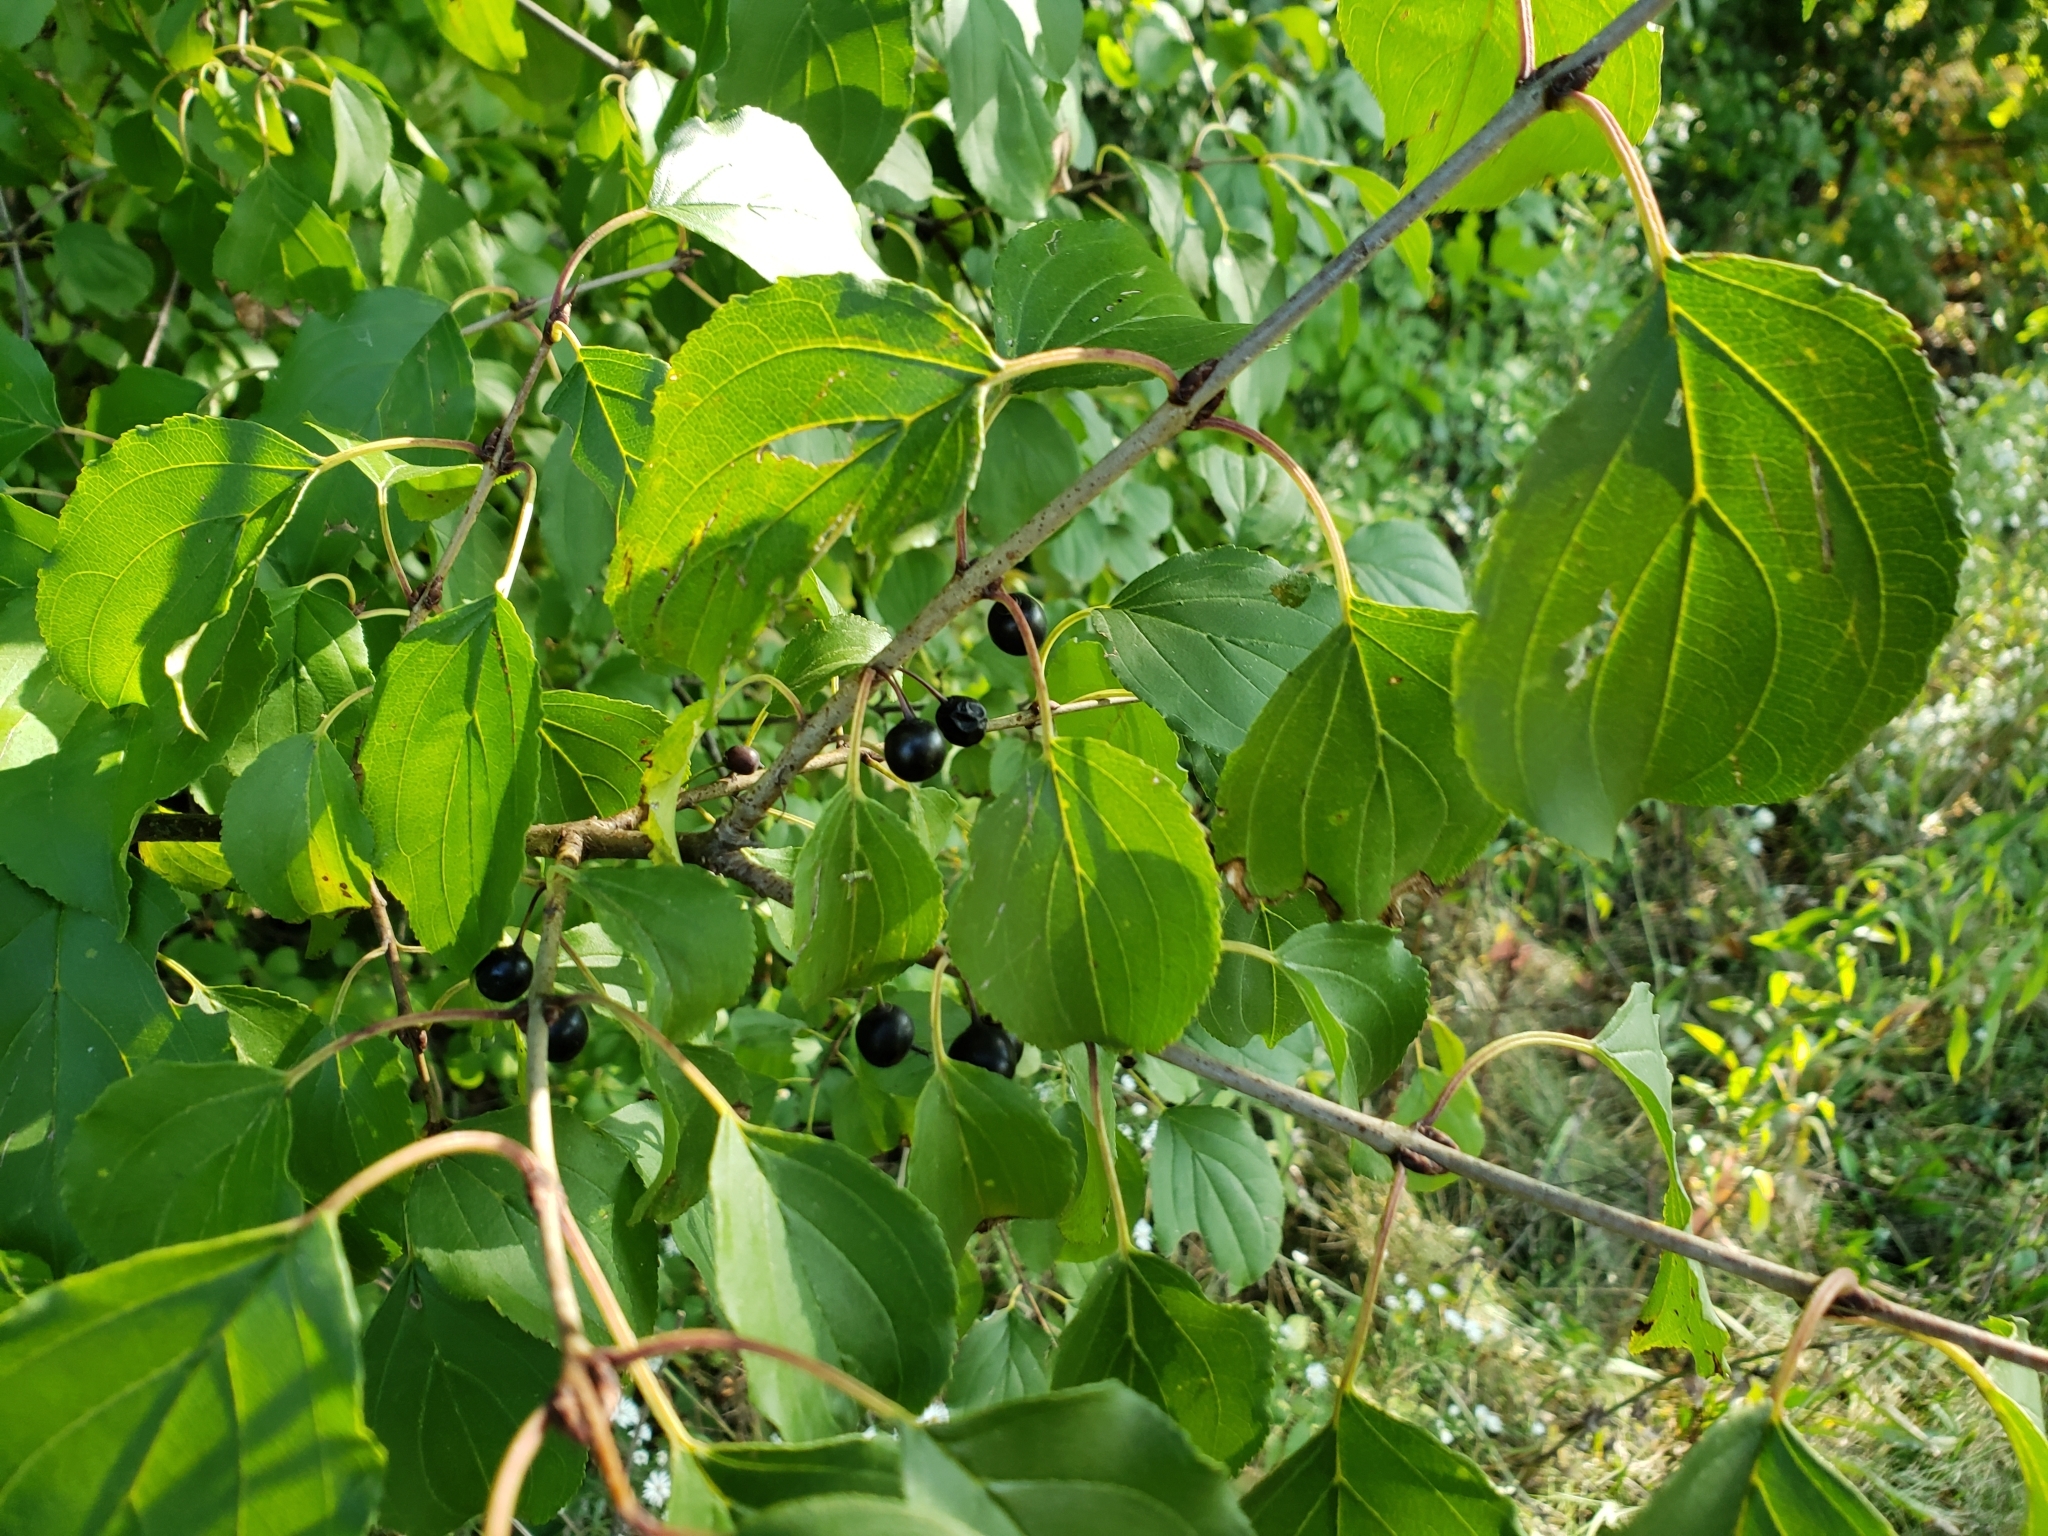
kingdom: Plantae
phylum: Tracheophyta
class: Magnoliopsida
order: Rosales
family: Rhamnaceae
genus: Rhamnus
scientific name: Rhamnus cathartica
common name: Common buckthorn
